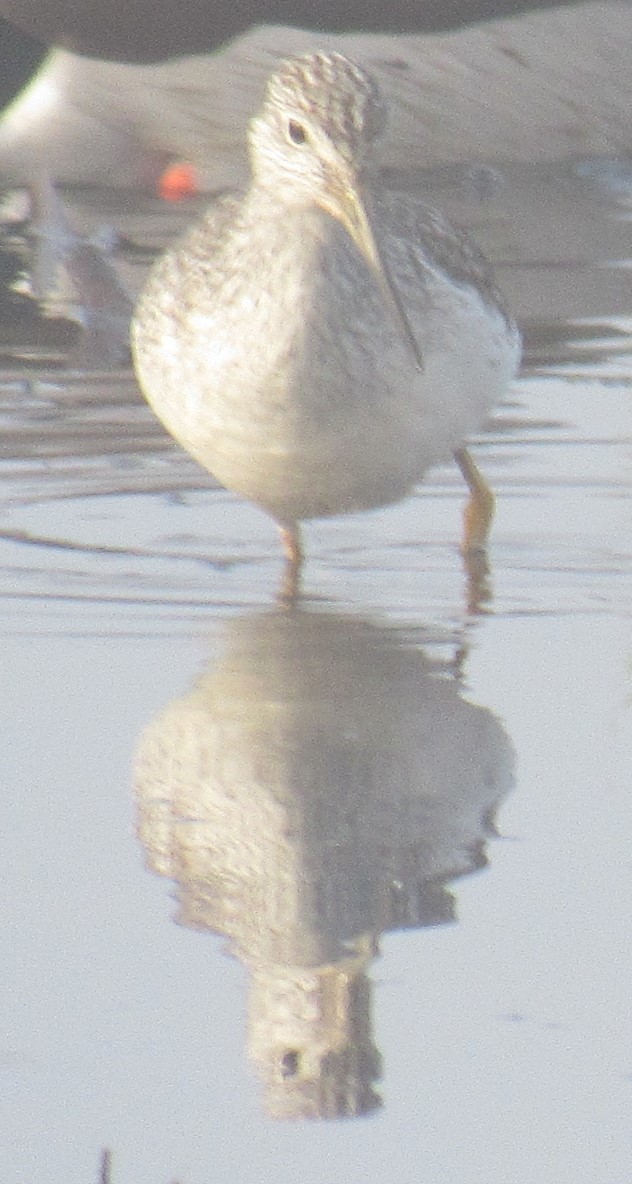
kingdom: Animalia
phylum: Chordata
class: Aves
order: Charadriiformes
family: Scolopacidae
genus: Tringa
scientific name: Tringa melanoleuca
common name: Greater yellowlegs
